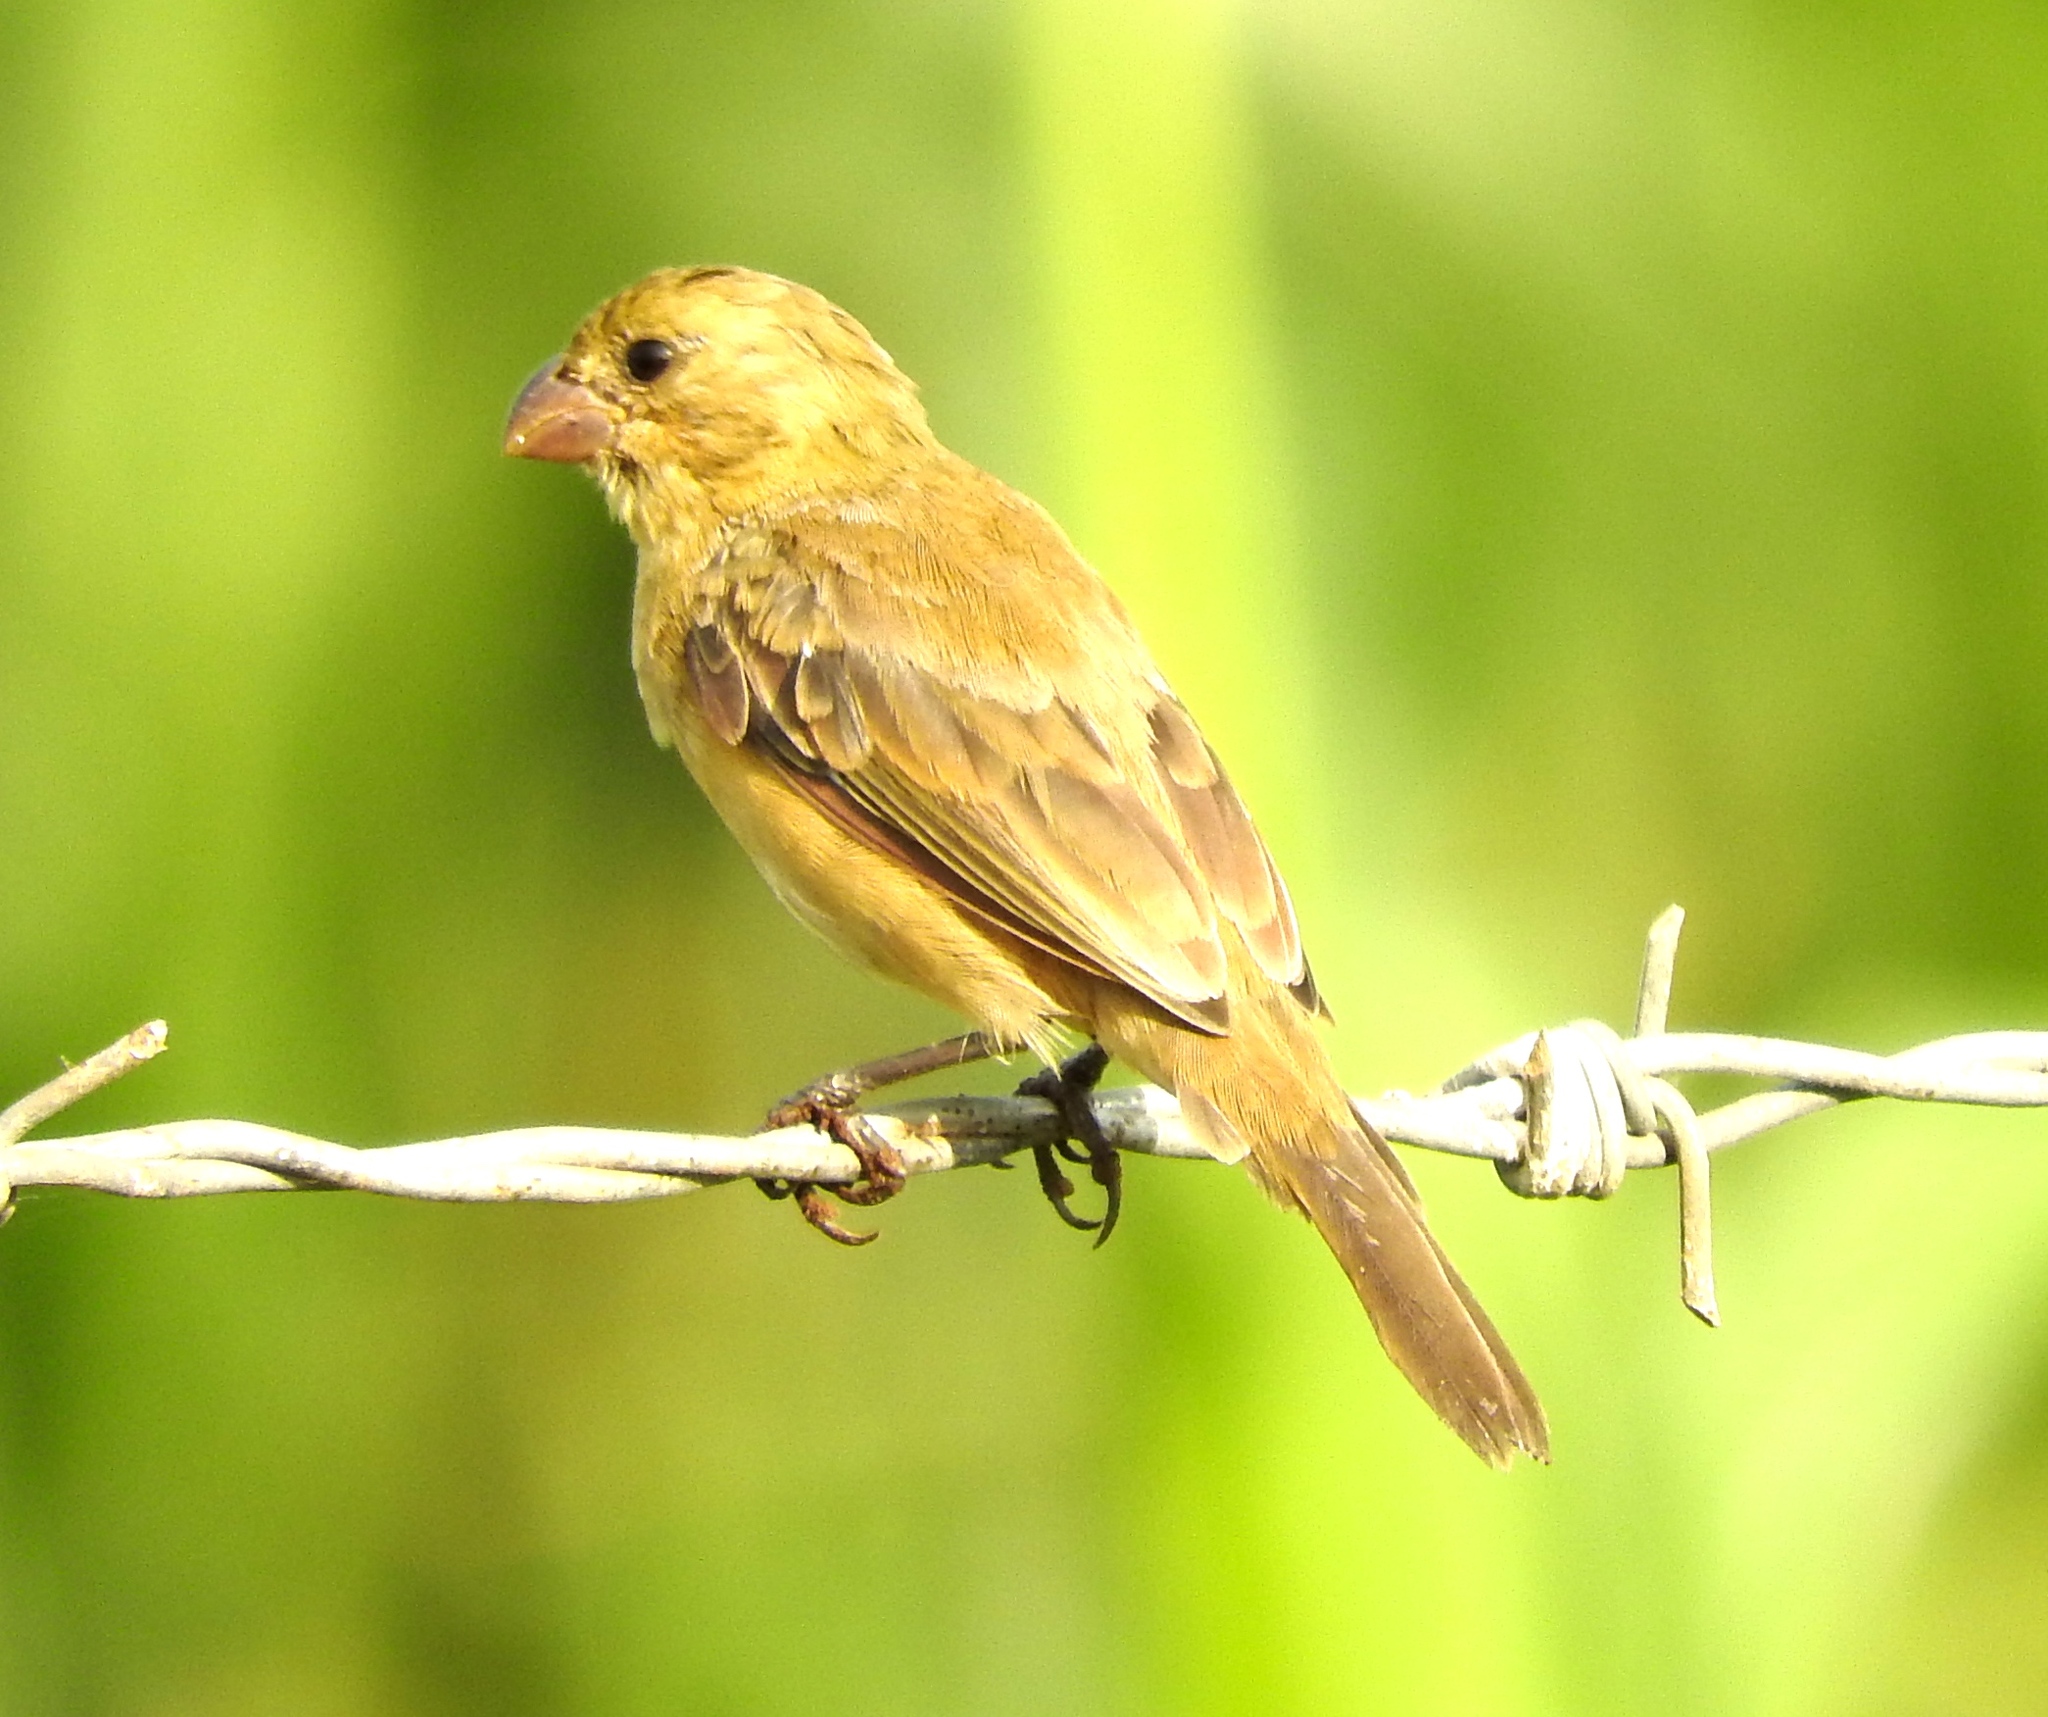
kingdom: Animalia
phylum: Chordata
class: Aves
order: Passeriformes
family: Thraupidae
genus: Sporophila
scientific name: Sporophila torqueola
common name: White-collared seedeater
